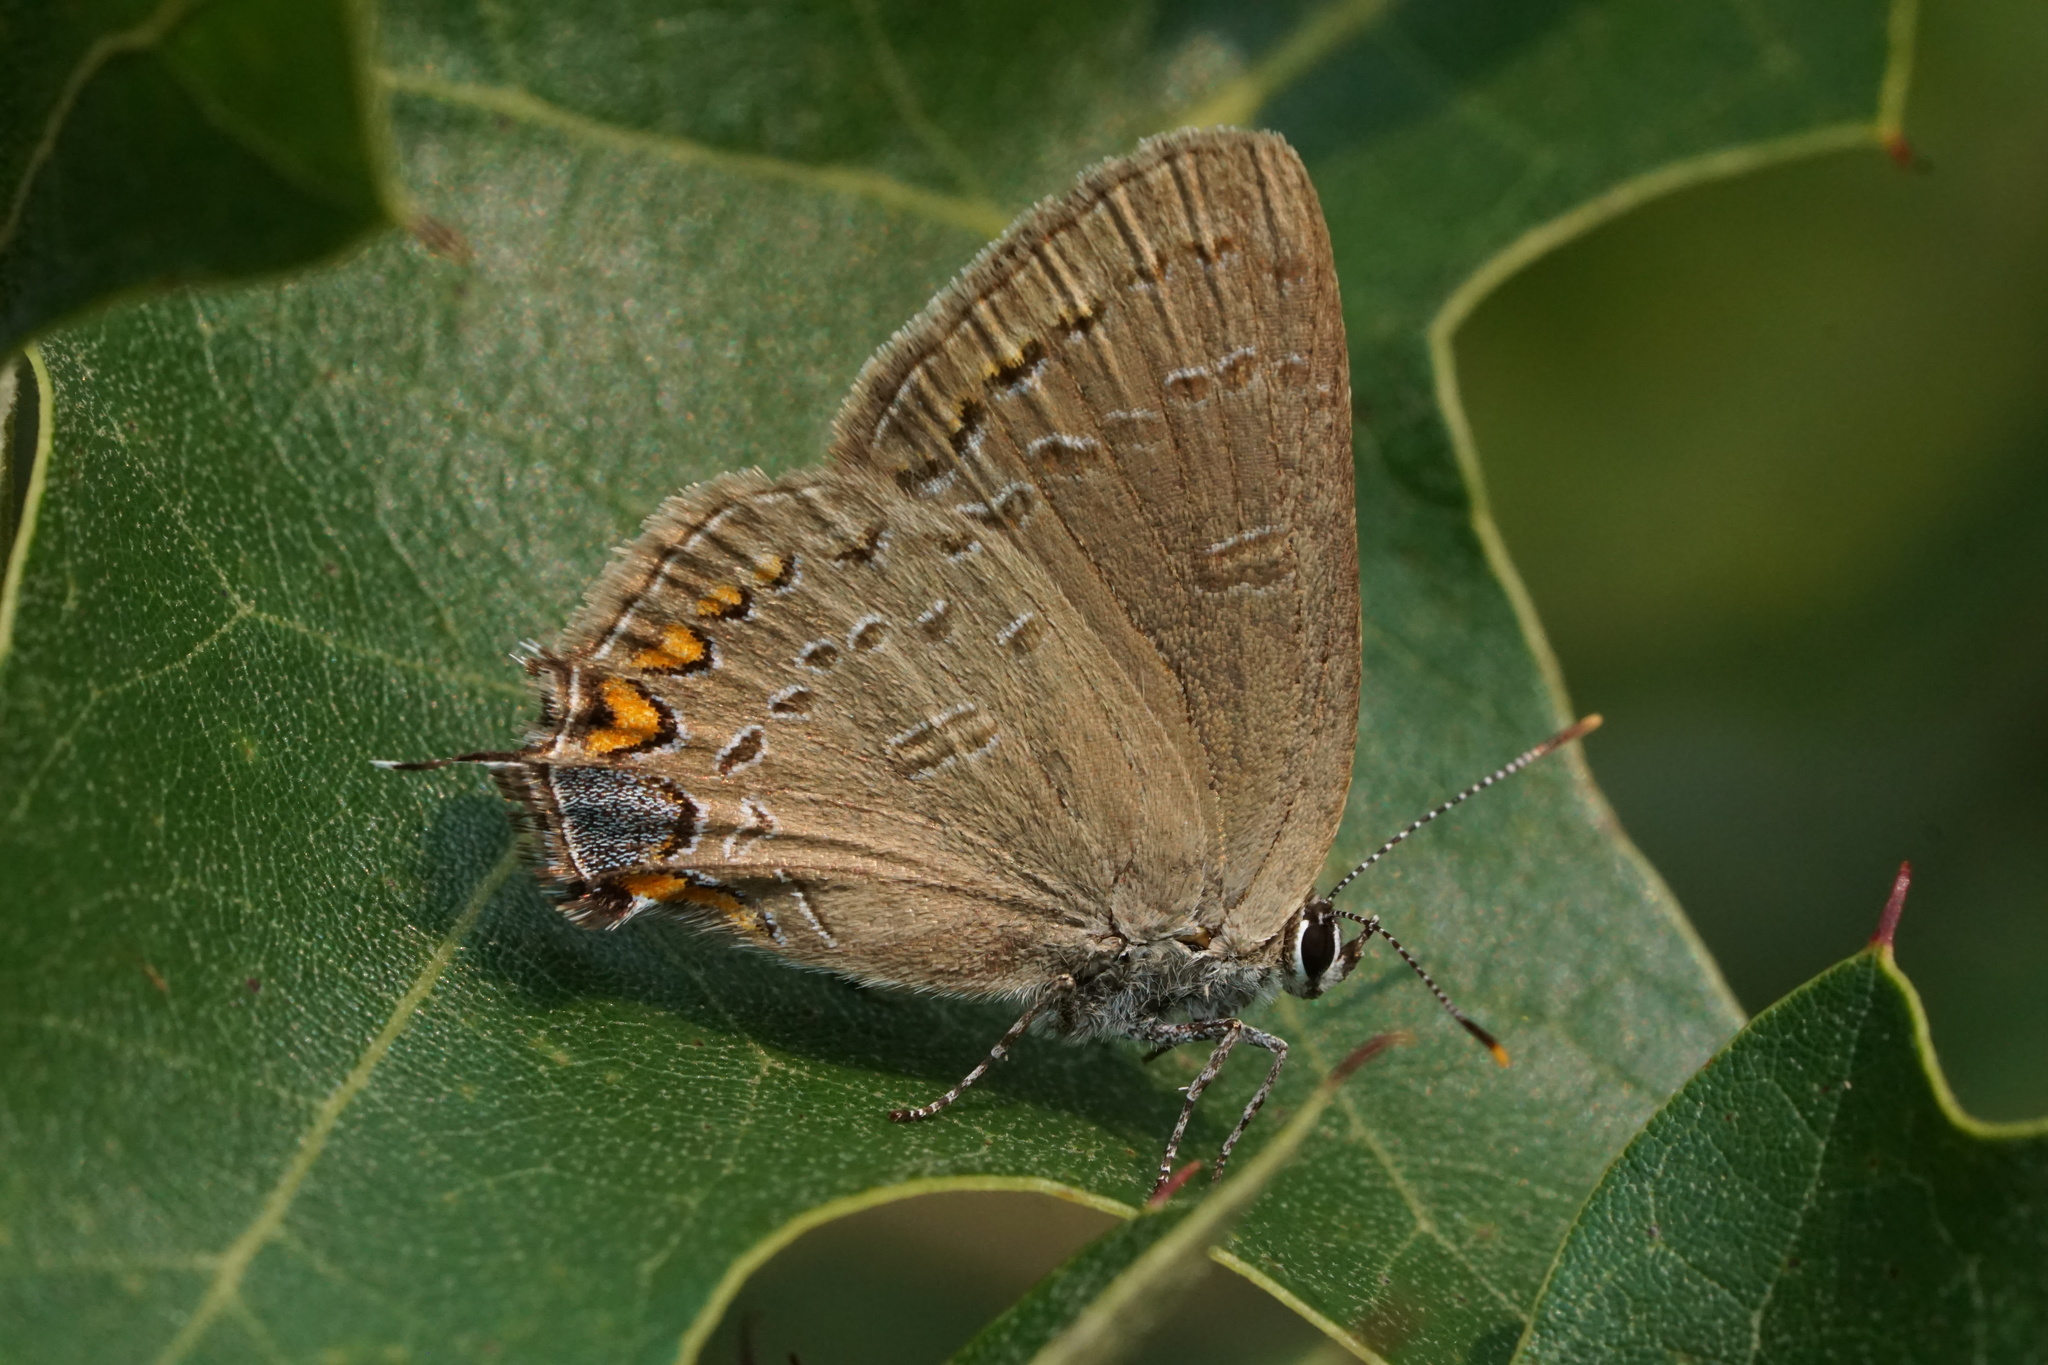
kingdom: Animalia
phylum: Arthropoda
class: Insecta
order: Lepidoptera
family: Lycaenidae
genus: Satyrium
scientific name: Satyrium edwardsii
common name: Edwards' hairstreak
